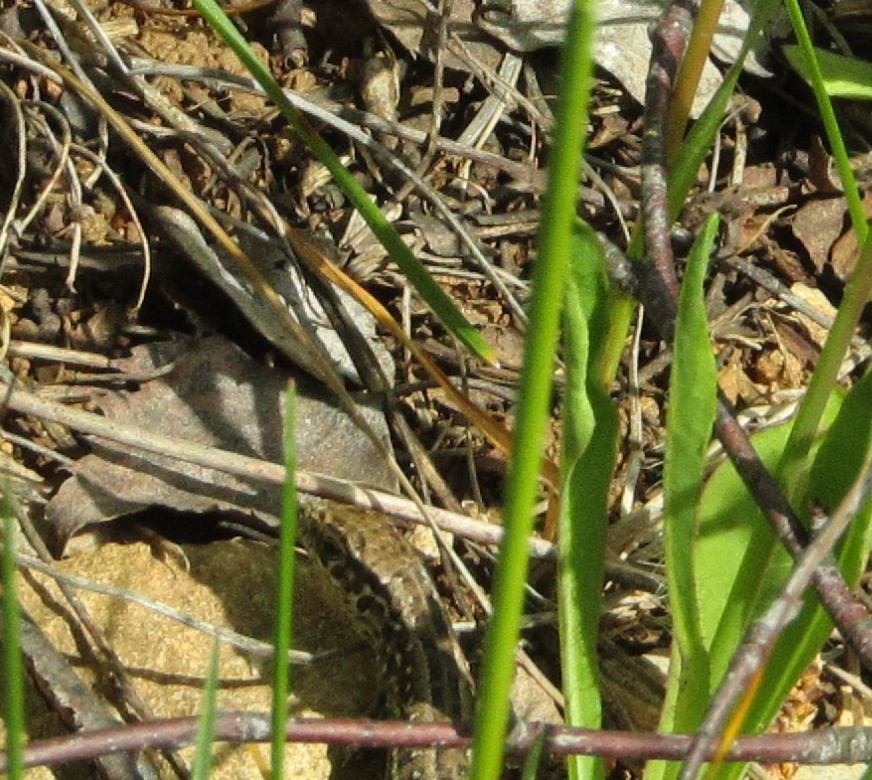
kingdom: Animalia
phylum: Chordata
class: Squamata
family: Lacertidae
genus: Lacerta
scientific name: Lacerta agilis
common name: Sand lizard
